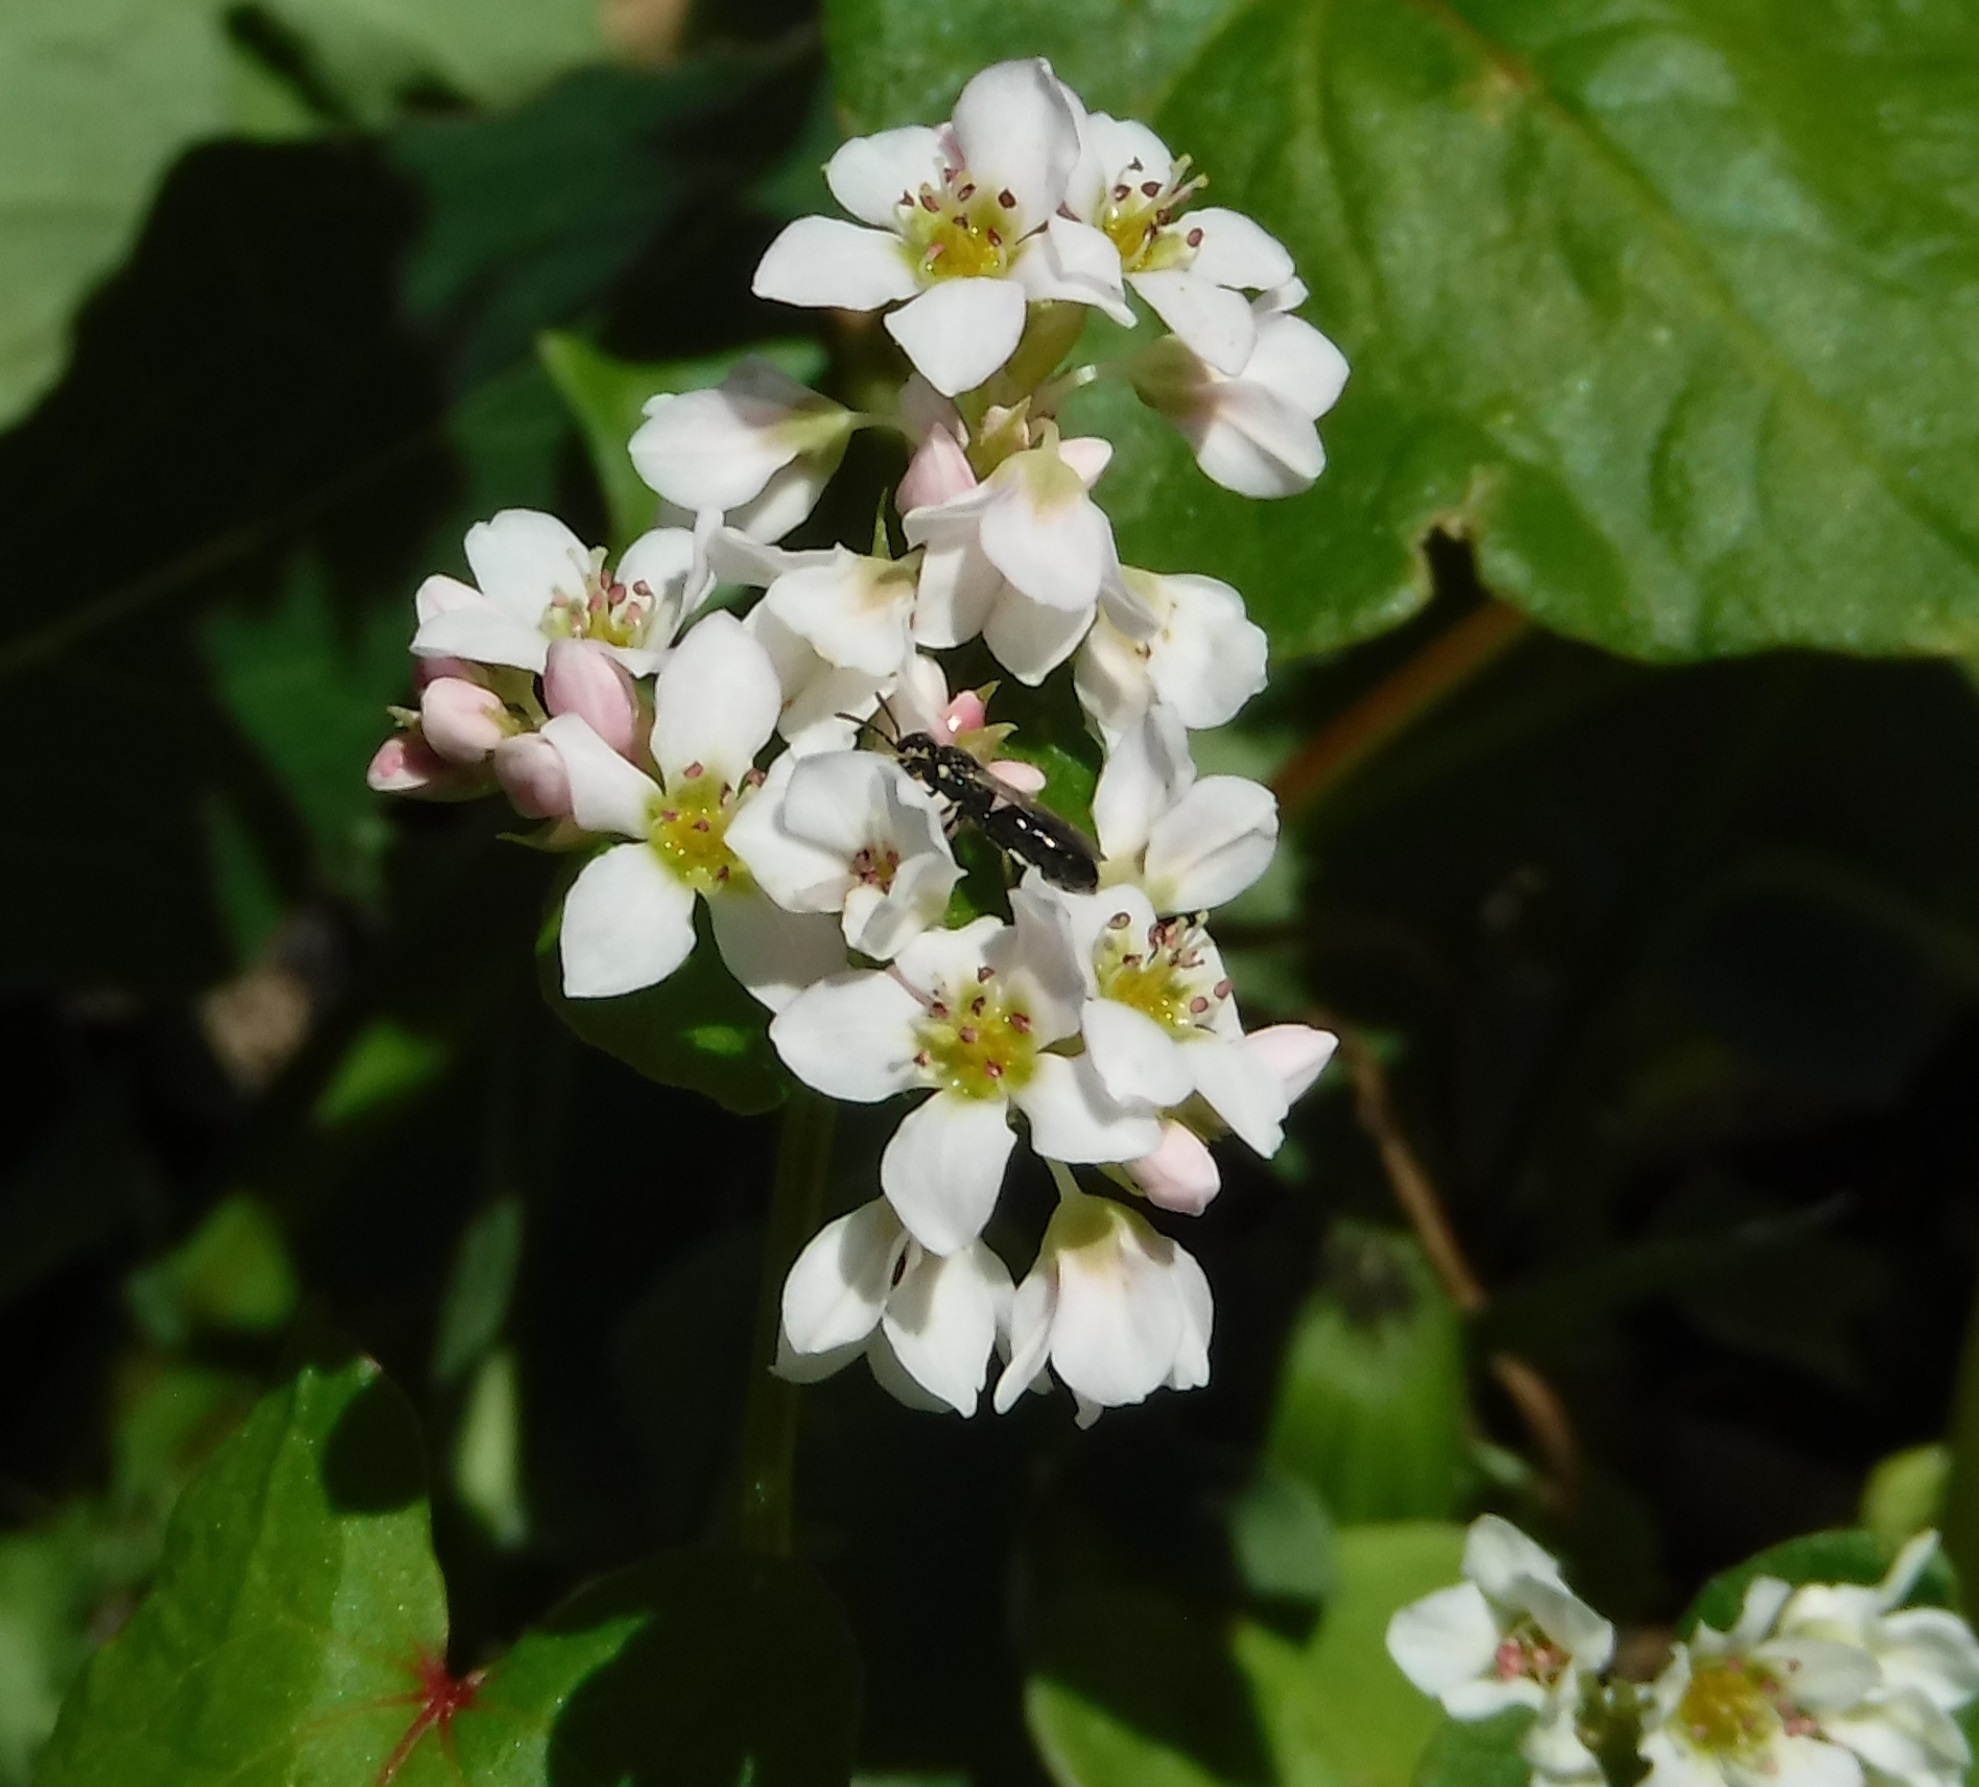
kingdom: Animalia
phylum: Arthropoda
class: Insecta
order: Hymenoptera
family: Colletidae
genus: Hylaeus
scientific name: Hylaeus
